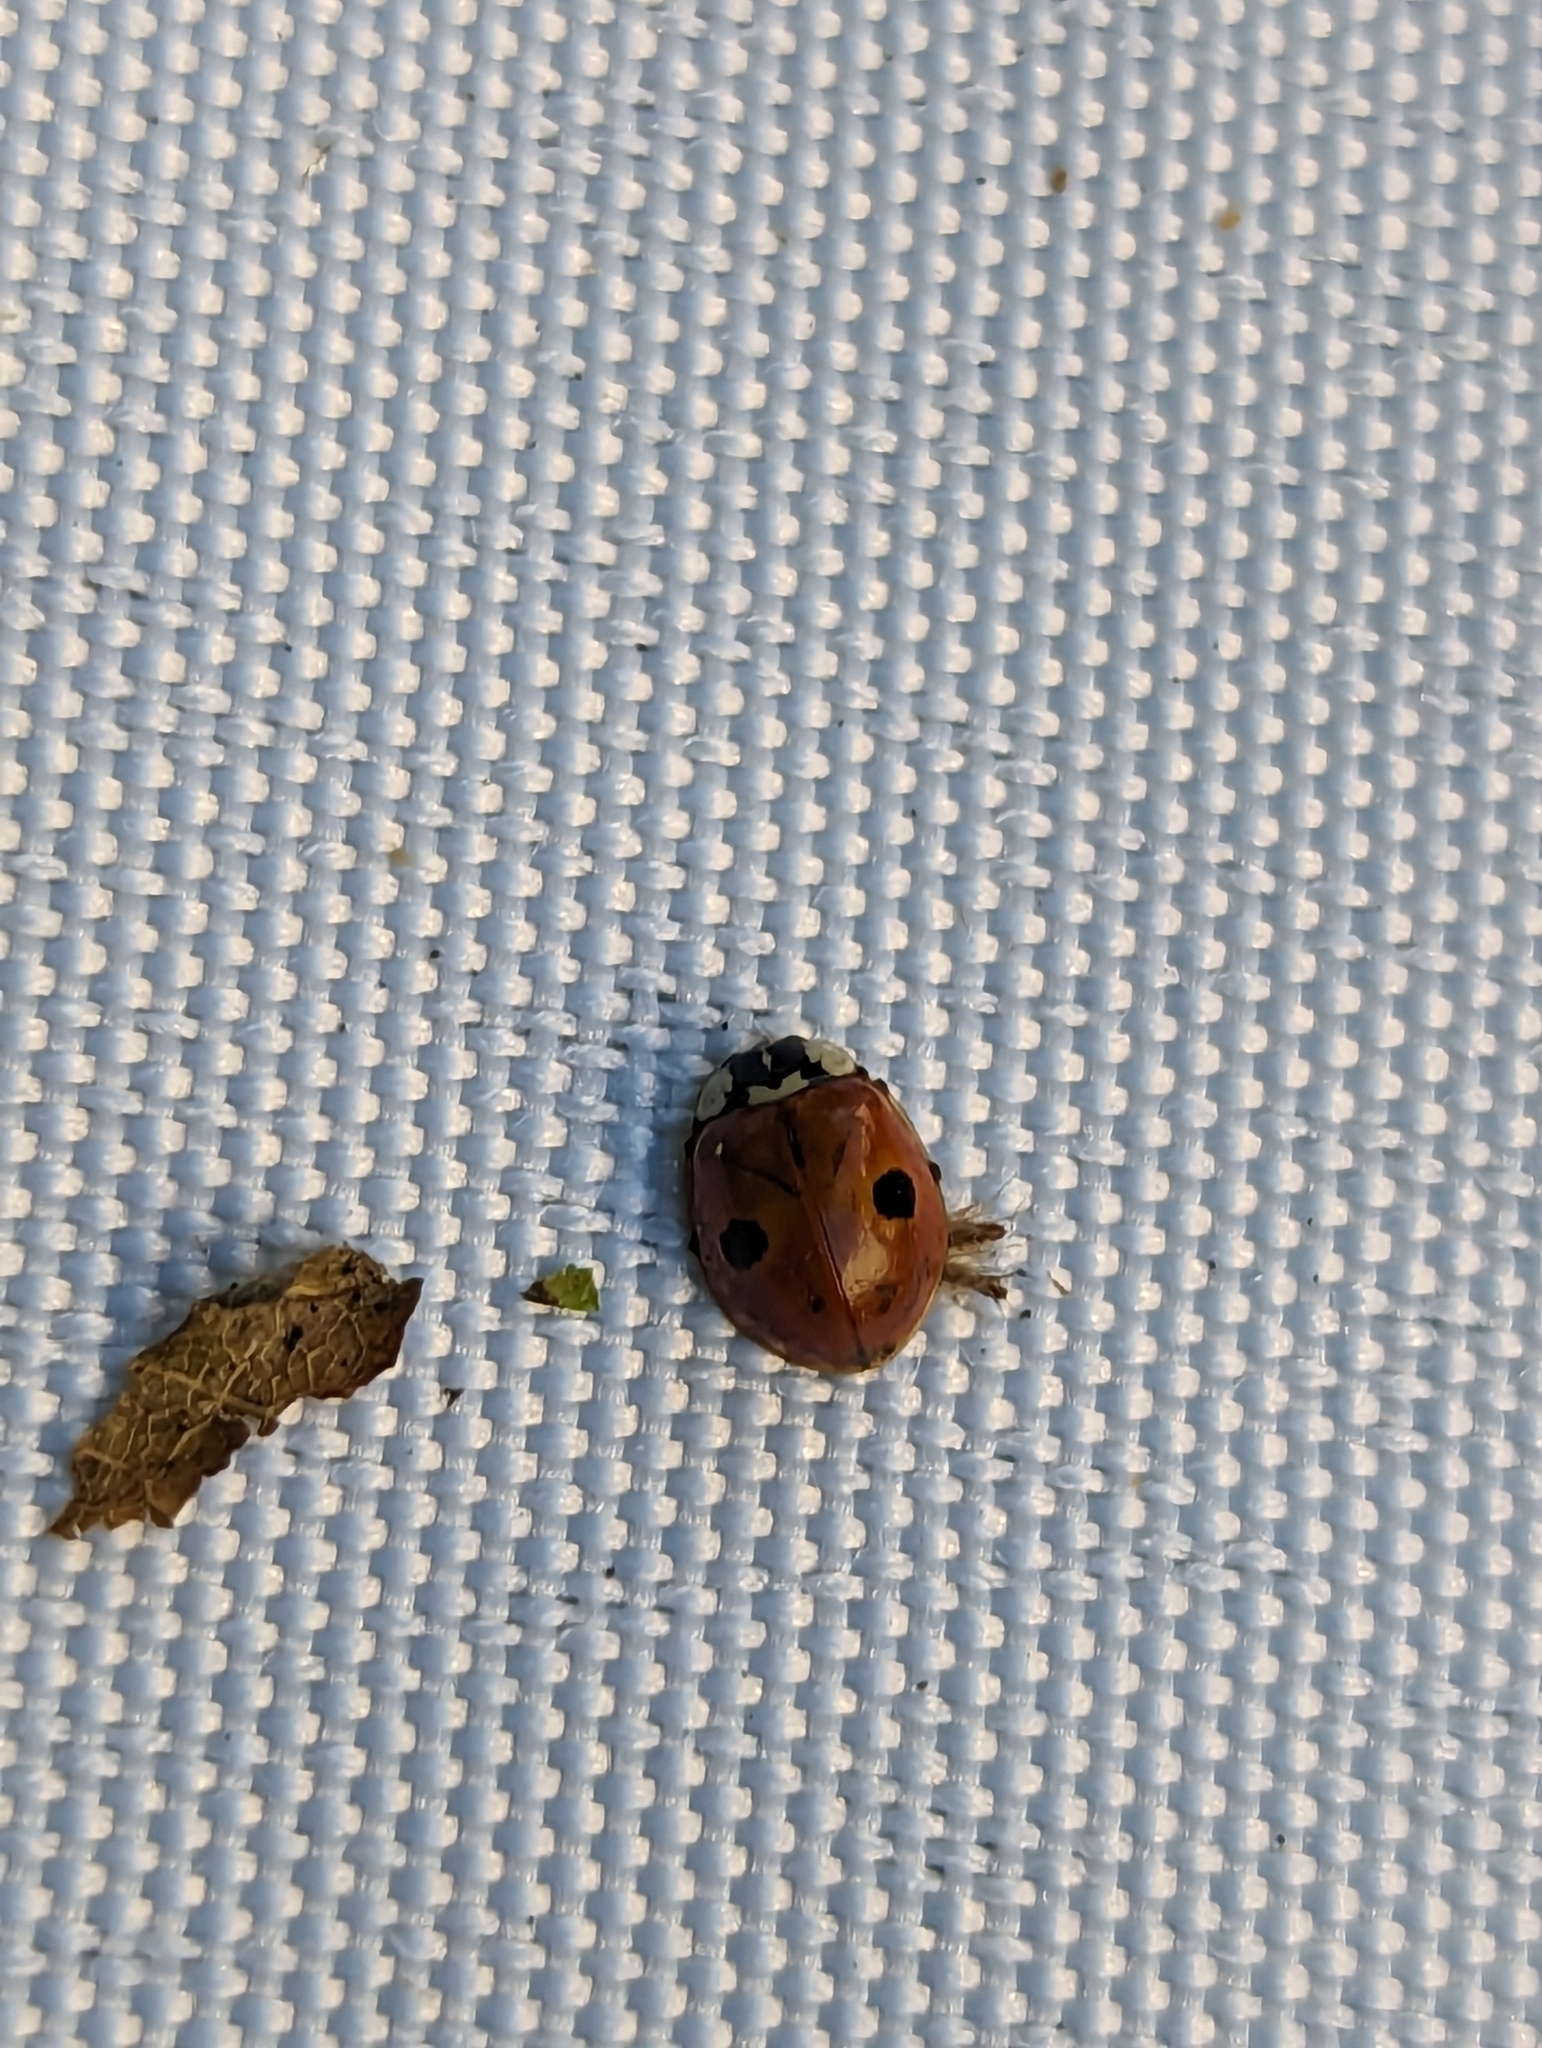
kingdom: Animalia
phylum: Arthropoda
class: Insecta
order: Coleoptera
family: Coccinellidae
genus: Adalia
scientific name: Adalia bipunctata
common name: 2-spot ladybird
